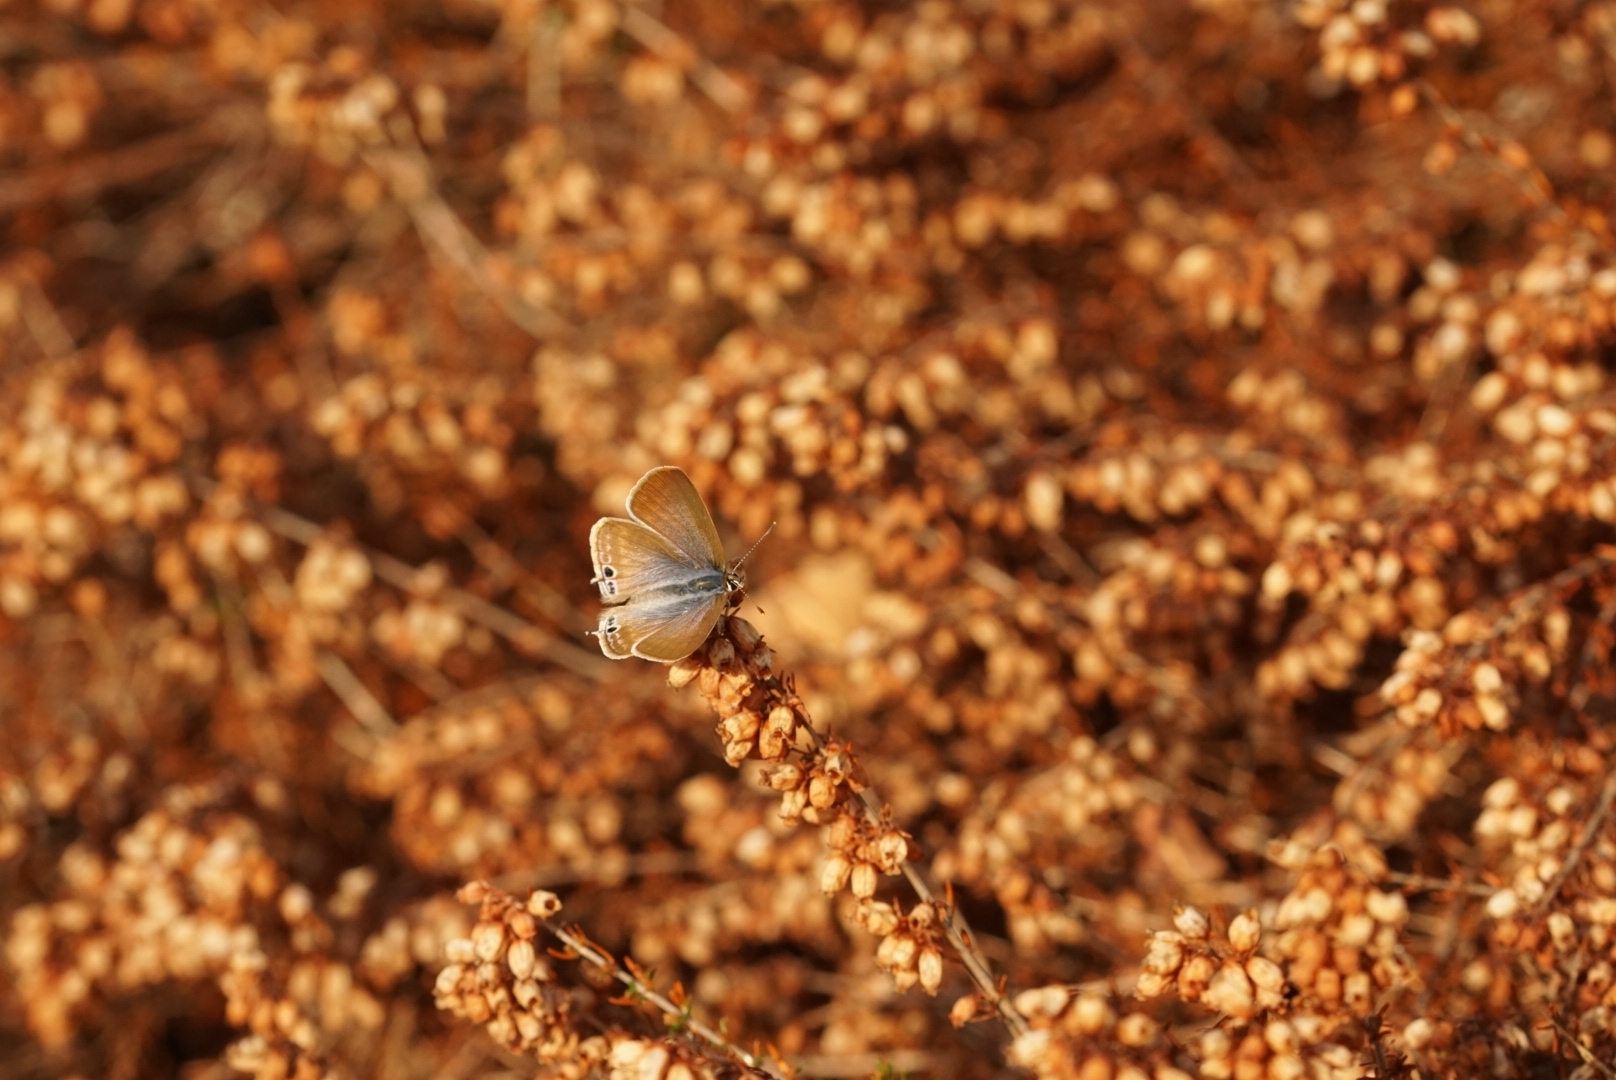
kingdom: Animalia
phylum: Arthropoda
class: Insecta
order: Lepidoptera
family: Lycaenidae
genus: Lampides
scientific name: Lampides boeticus
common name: Long-tailed blue
